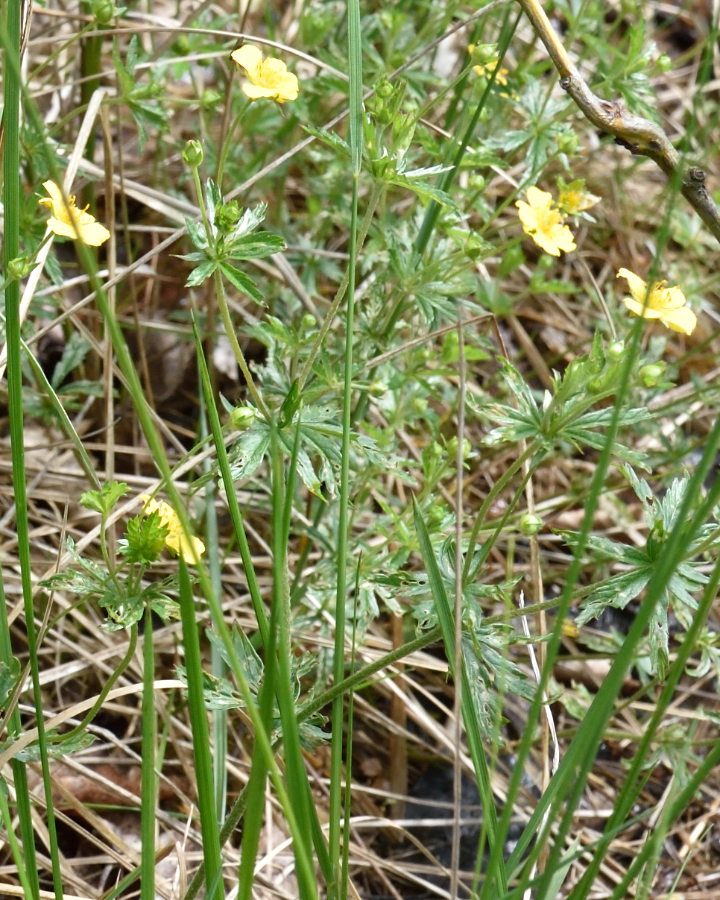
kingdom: Plantae
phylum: Tracheophyta
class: Magnoliopsida
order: Rosales
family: Rosaceae
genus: Potentilla
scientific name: Potentilla erecta
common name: Tormentil
